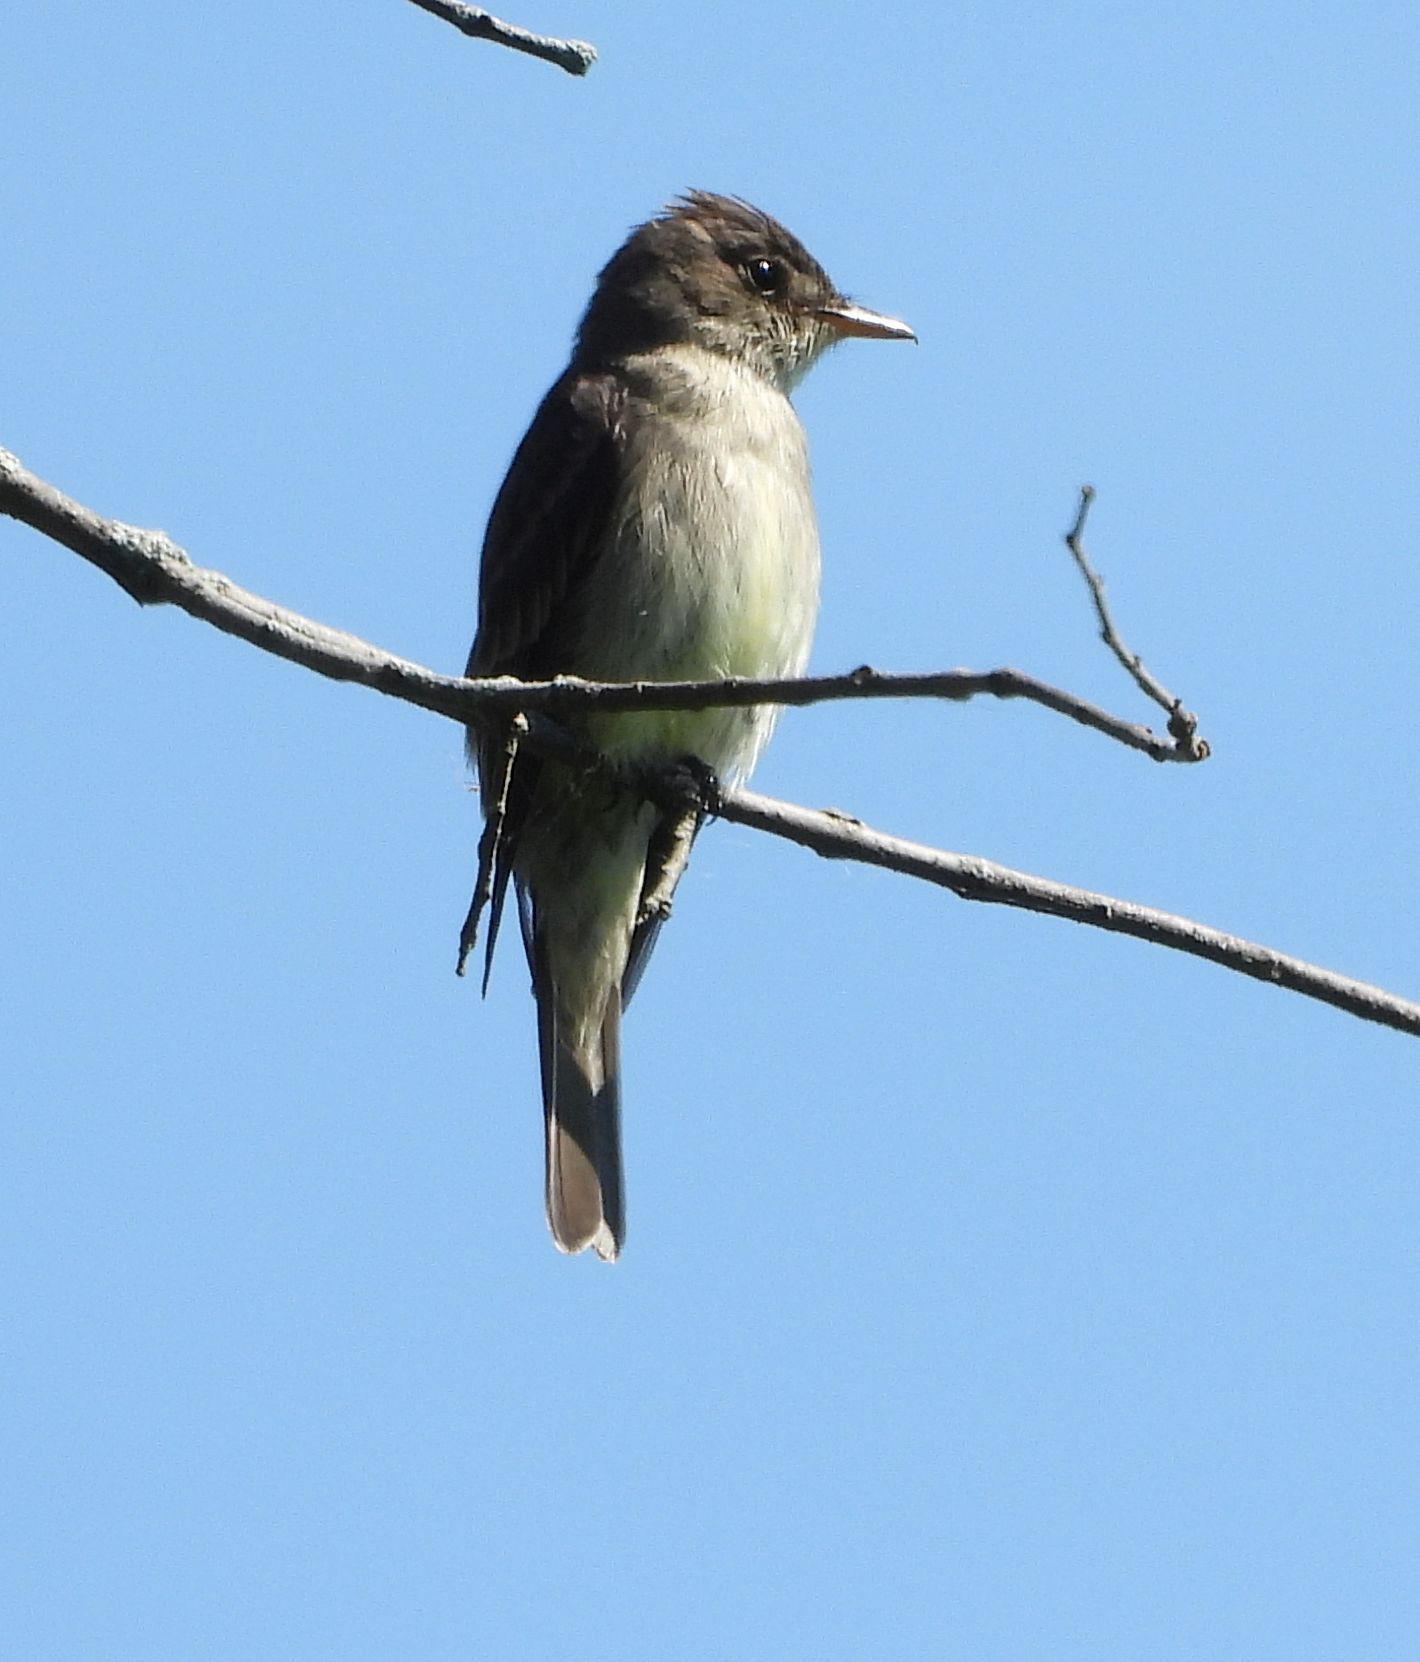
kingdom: Animalia
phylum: Chordata
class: Aves
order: Passeriformes
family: Tyrannidae
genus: Contopus
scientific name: Contopus virens
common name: Eastern wood-pewee
